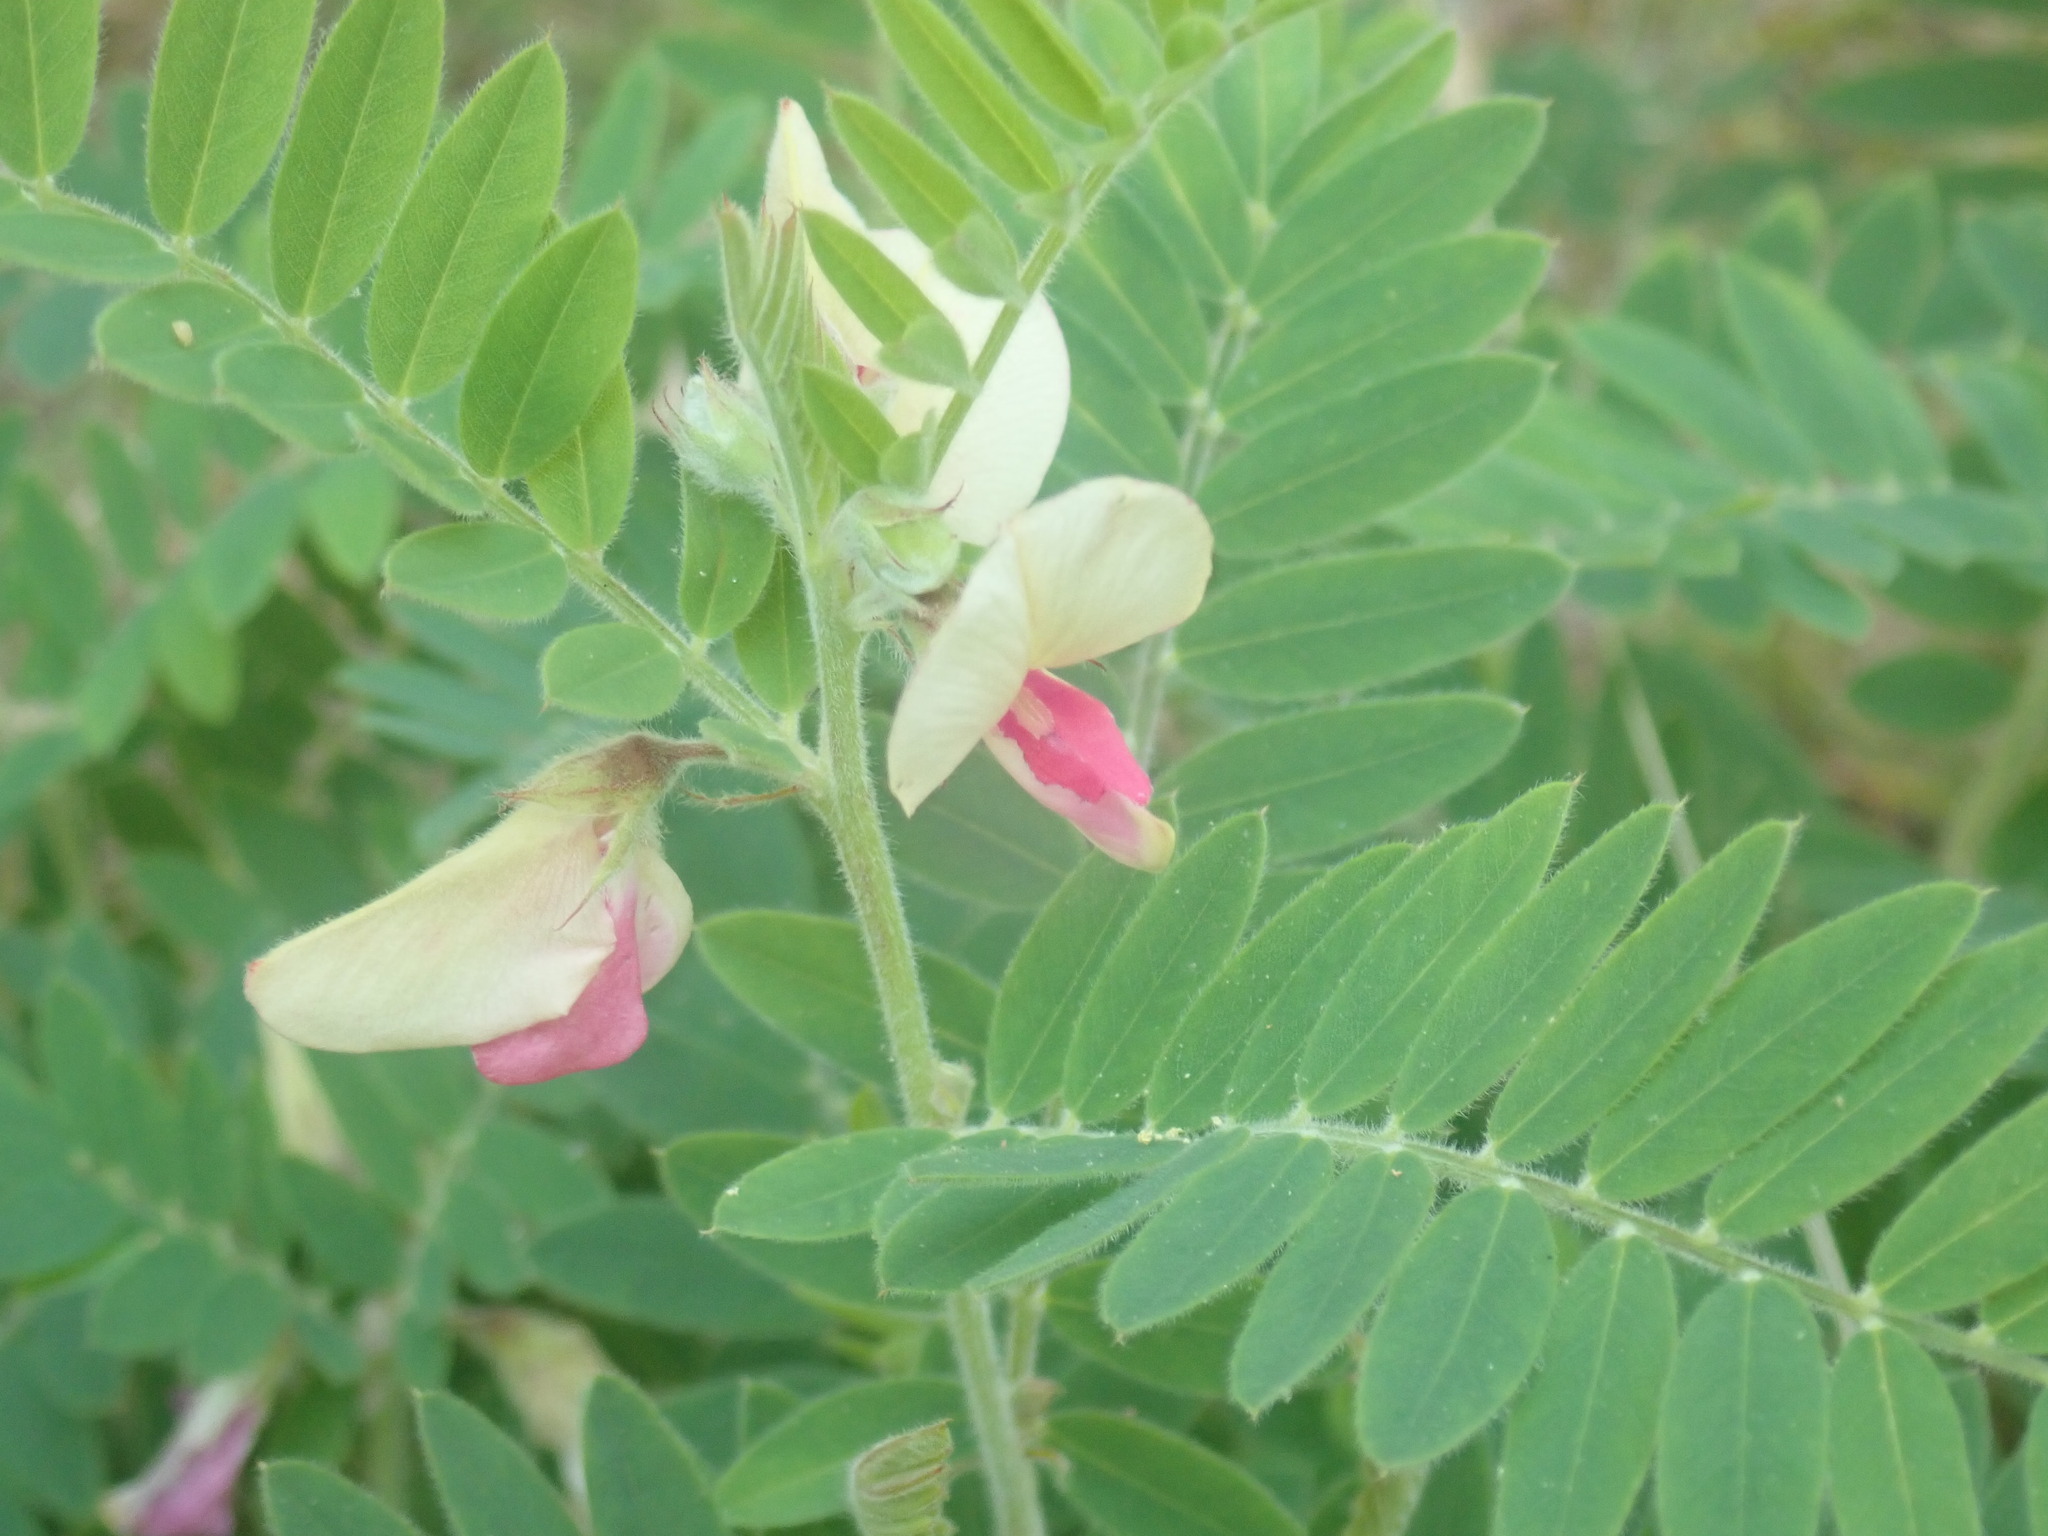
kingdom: Plantae
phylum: Tracheophyta
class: Magnoliopsida
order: Fabales
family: Fabaceae
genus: Tephrosia
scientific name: Tephrosia virginiana
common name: Rabbit-pea
